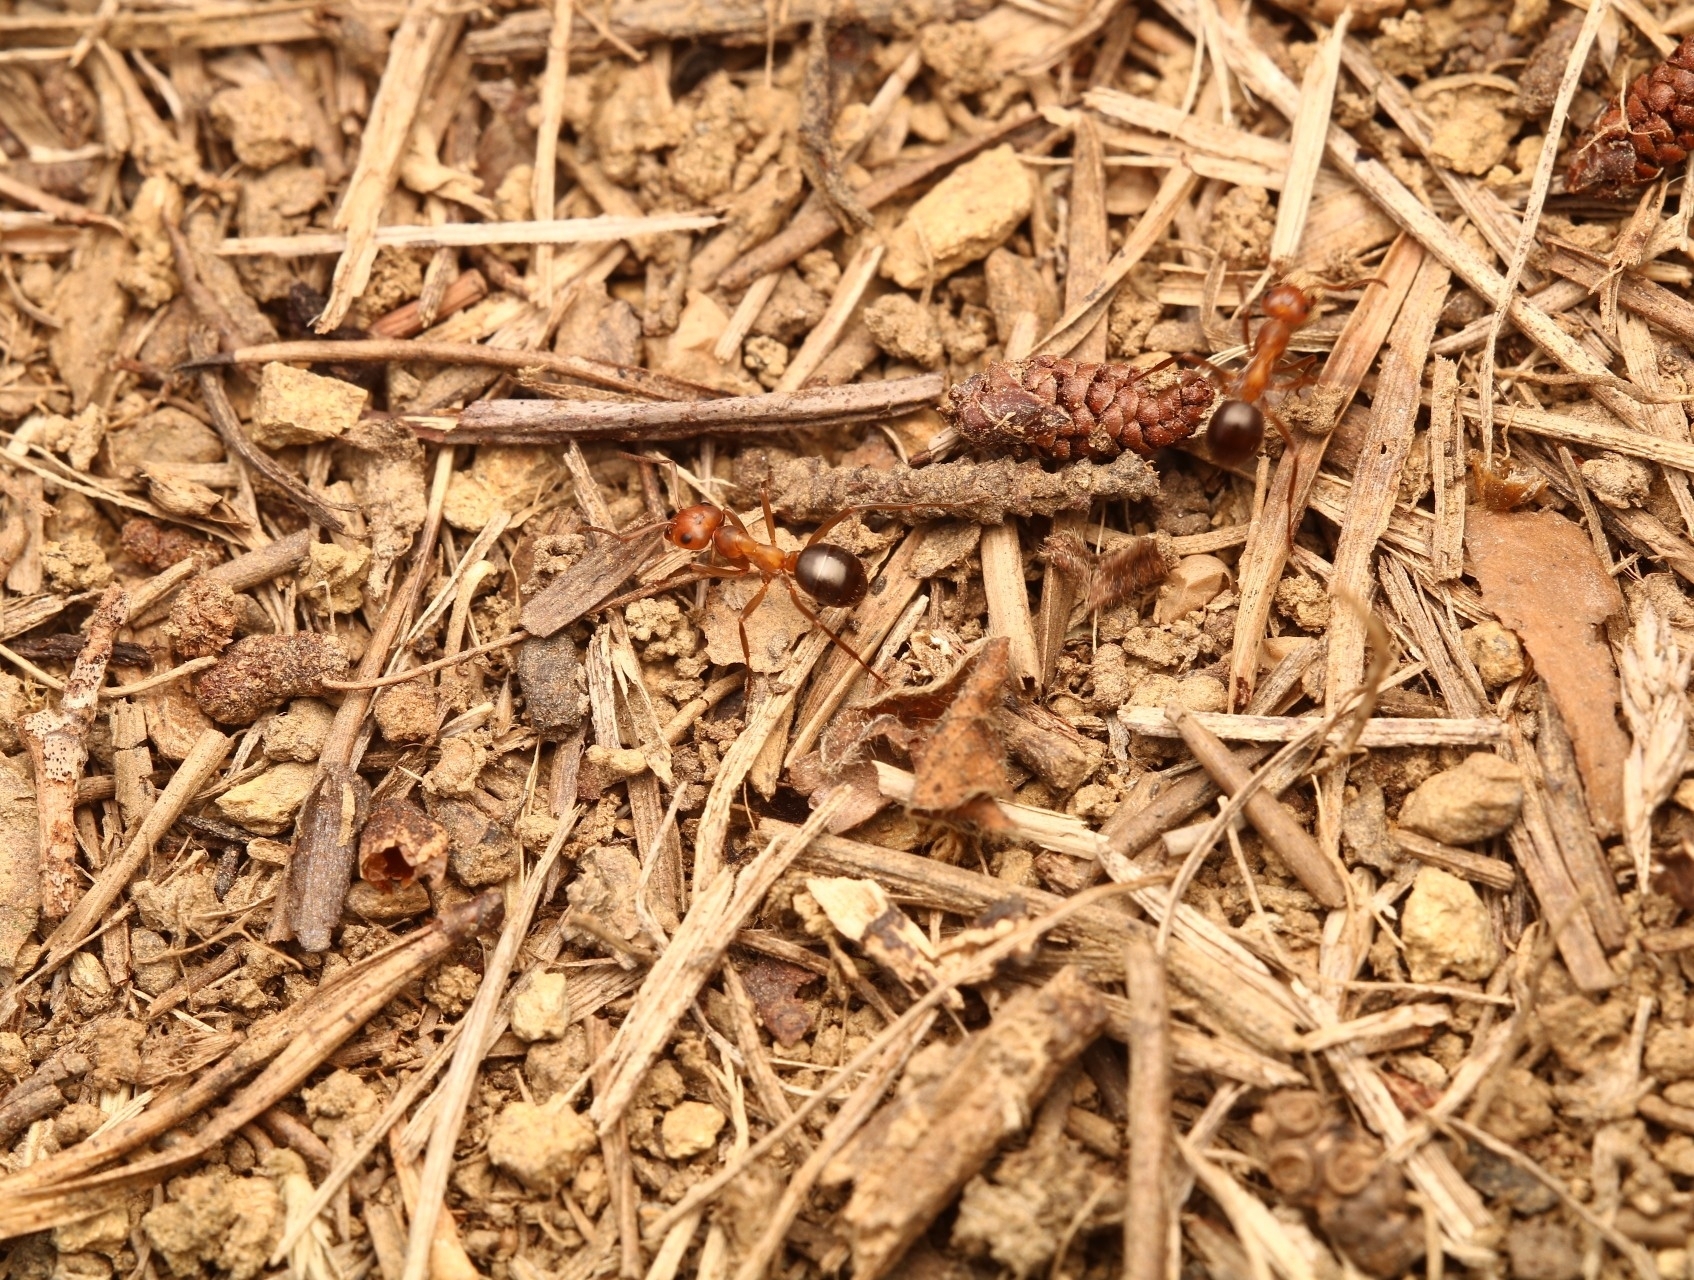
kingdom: Animalia
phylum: Arthropoda
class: Insecta
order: Hymenoptera
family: Formicidae
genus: Formica
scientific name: Formica exsectoides
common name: Allegheny mound ant
